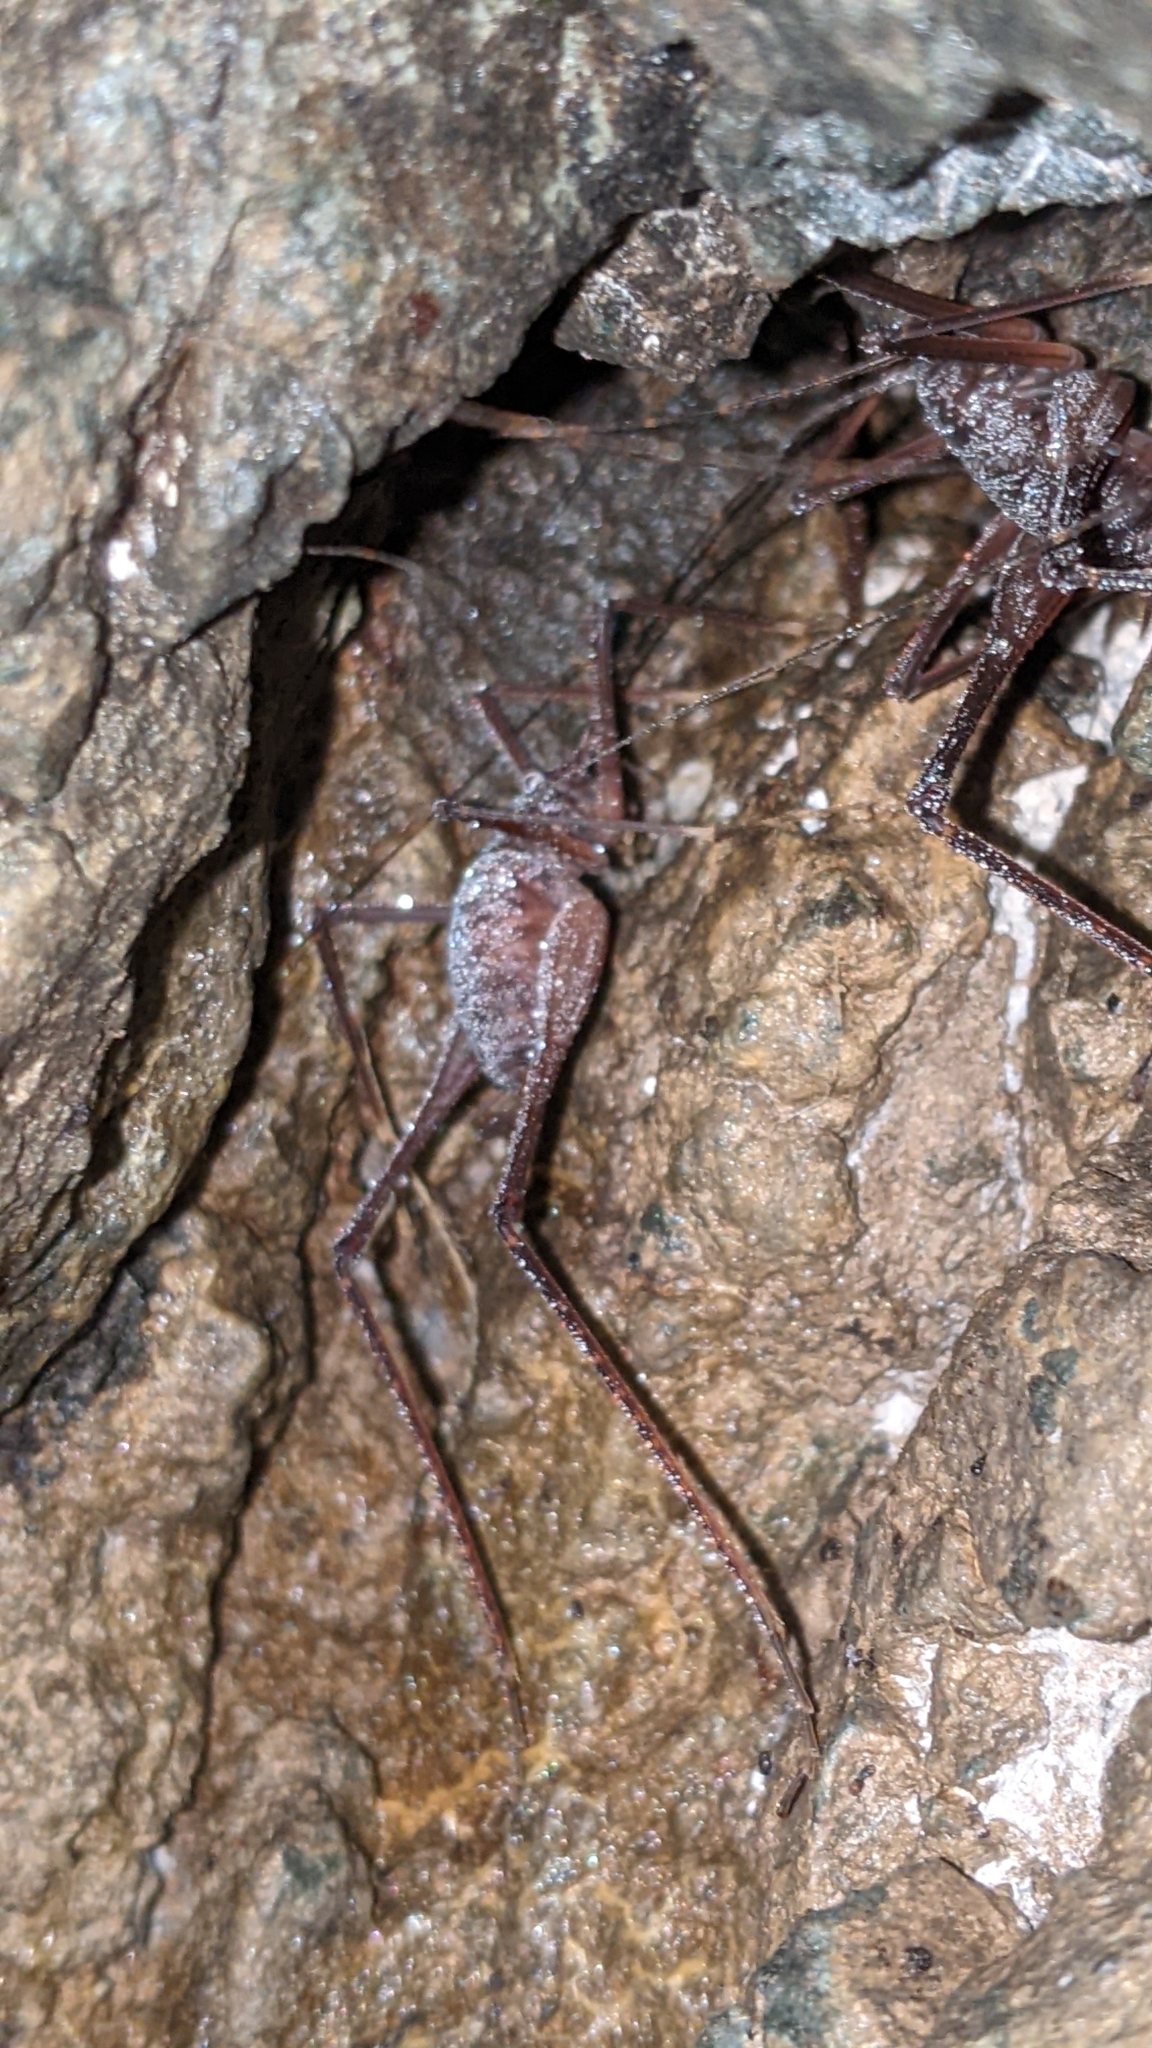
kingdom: Animalia
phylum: Arthropoda
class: Insecta
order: Orthoptera
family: Rhaphidophoridae
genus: Tropidischia
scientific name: Tropidischia xanthostoma
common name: Square-legged camel cricket
